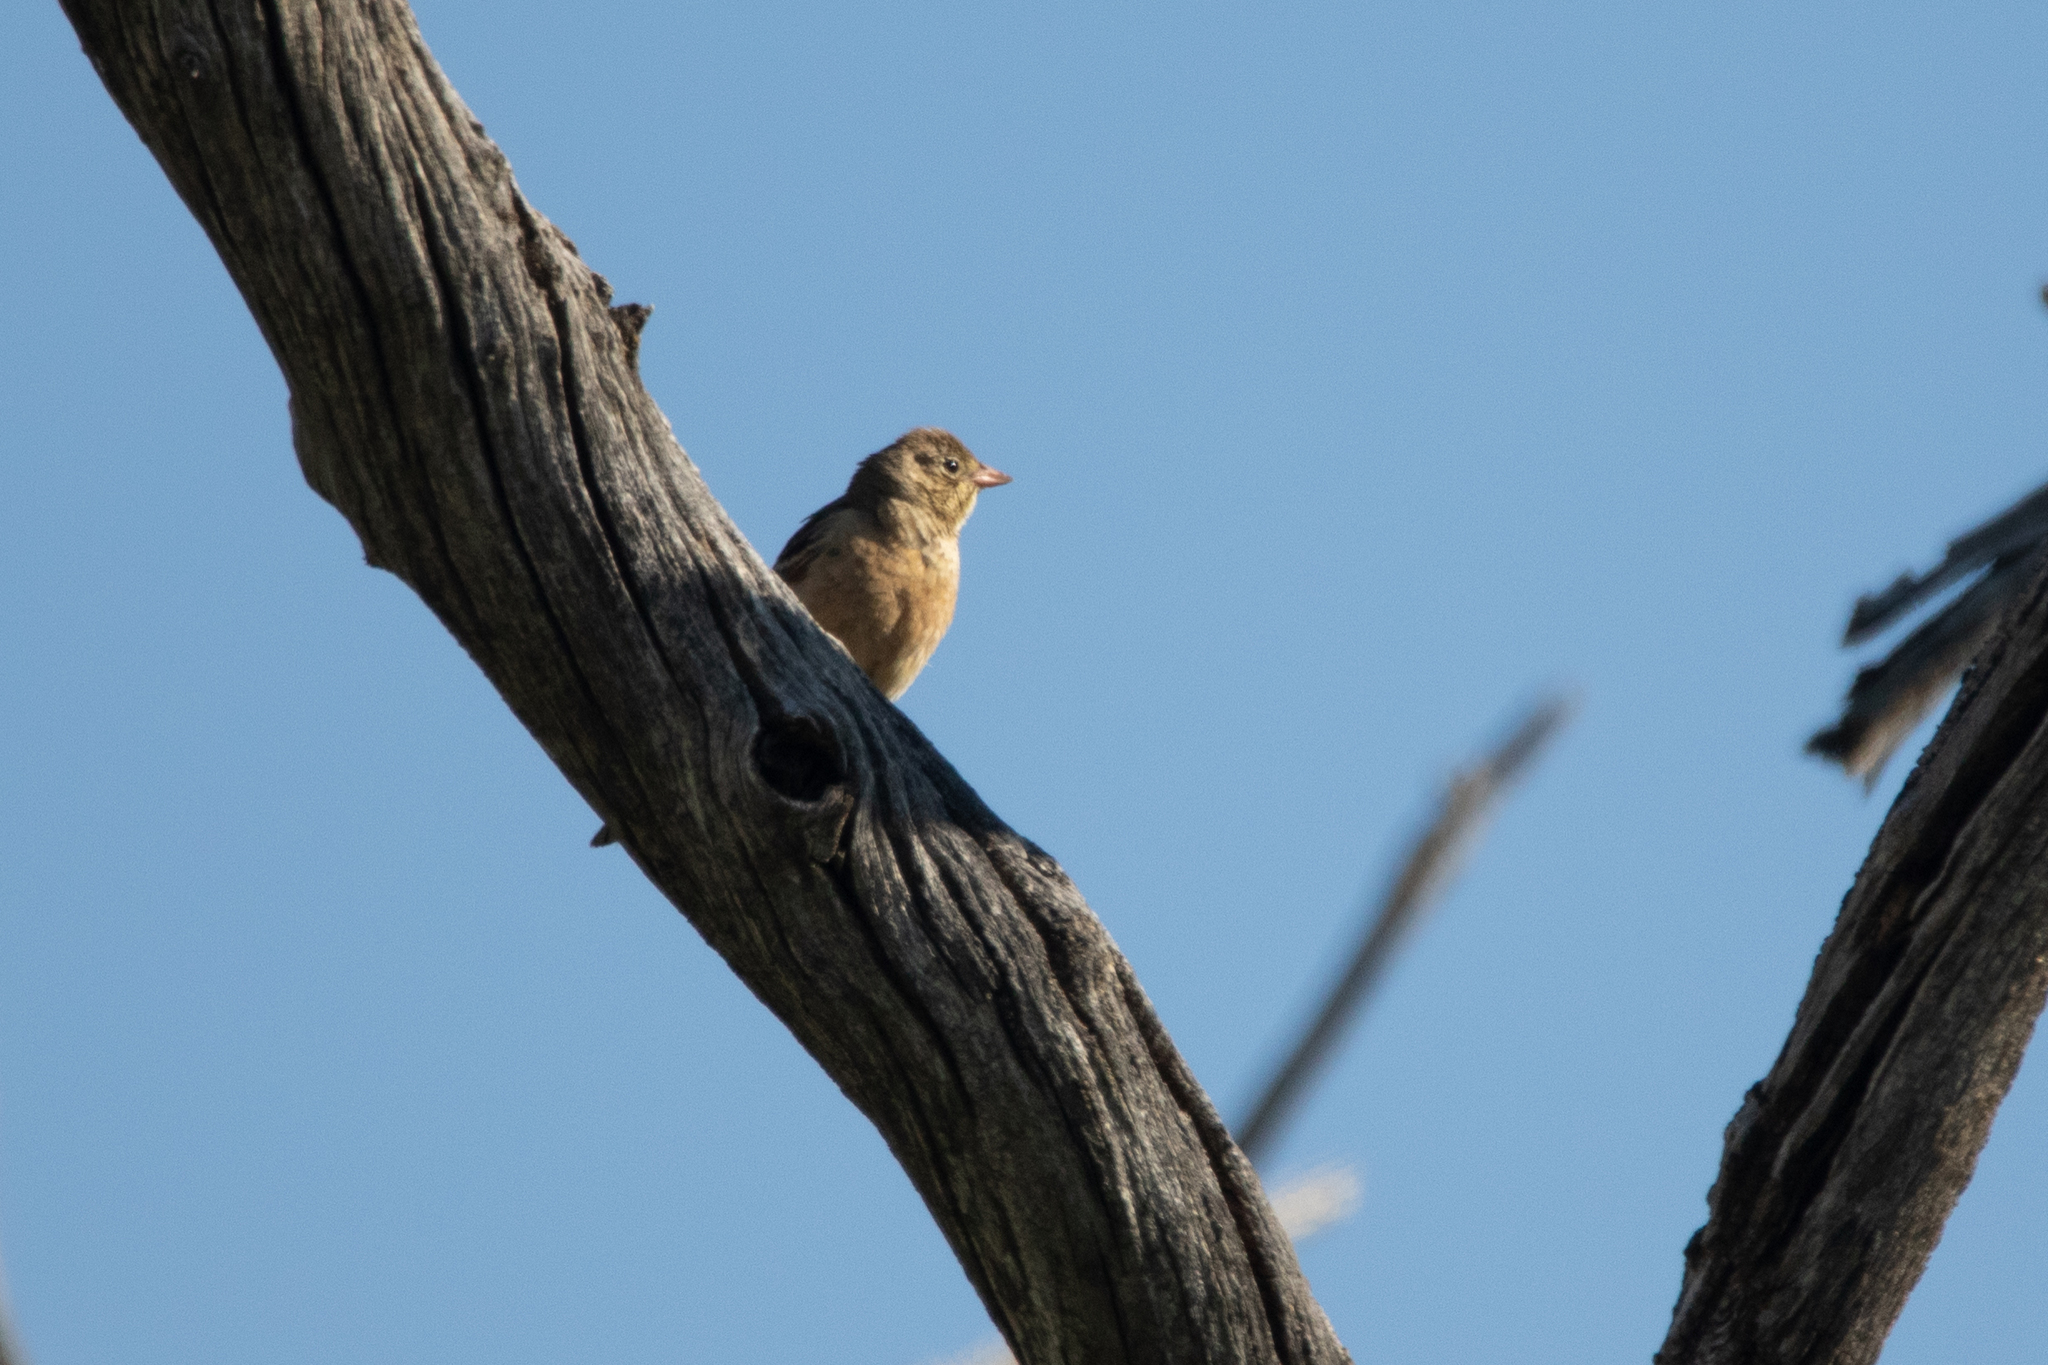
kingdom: Animalia
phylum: Chordata
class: Aves
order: Passeriformes
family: Emberizidae
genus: Emberiza
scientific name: Emberiza hortulana
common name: Ortolan bunting
